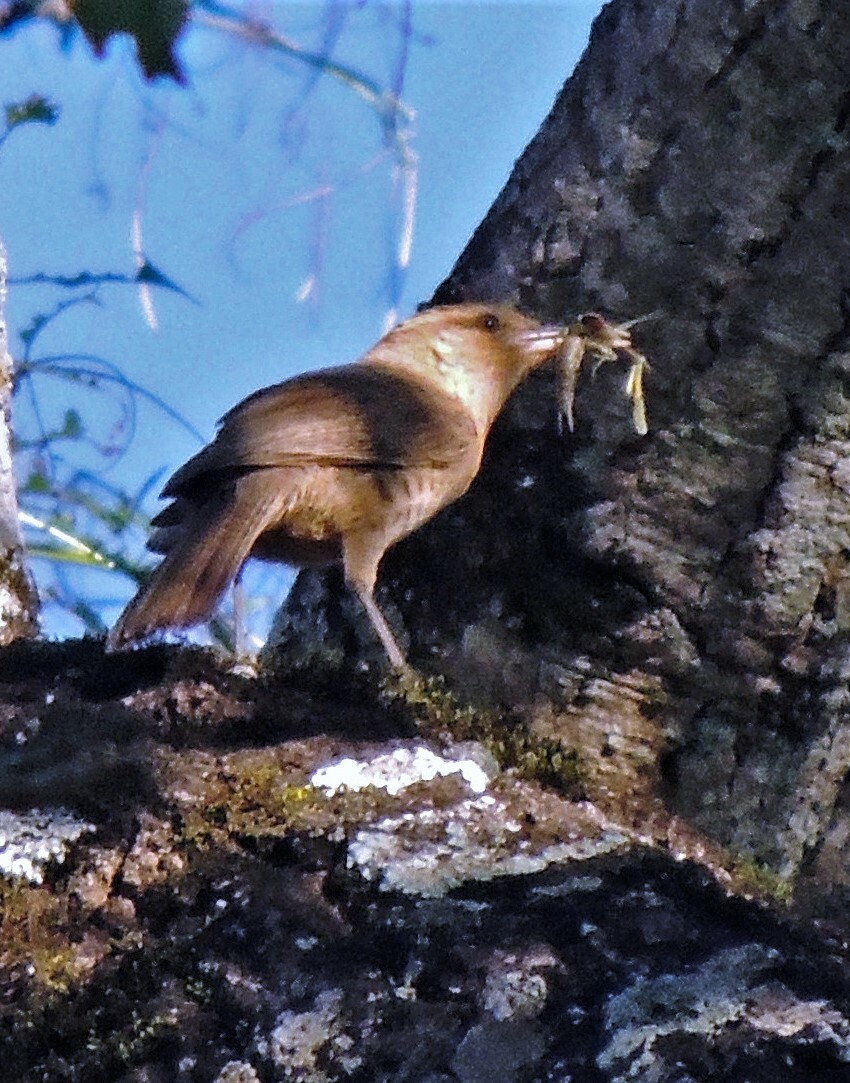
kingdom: Animalia
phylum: Chordata
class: Aves
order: Passeriformes
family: Troglodytidae
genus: Campylorhynchus
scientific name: Campylorhynchus turdinus
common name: Thrush-like wren
